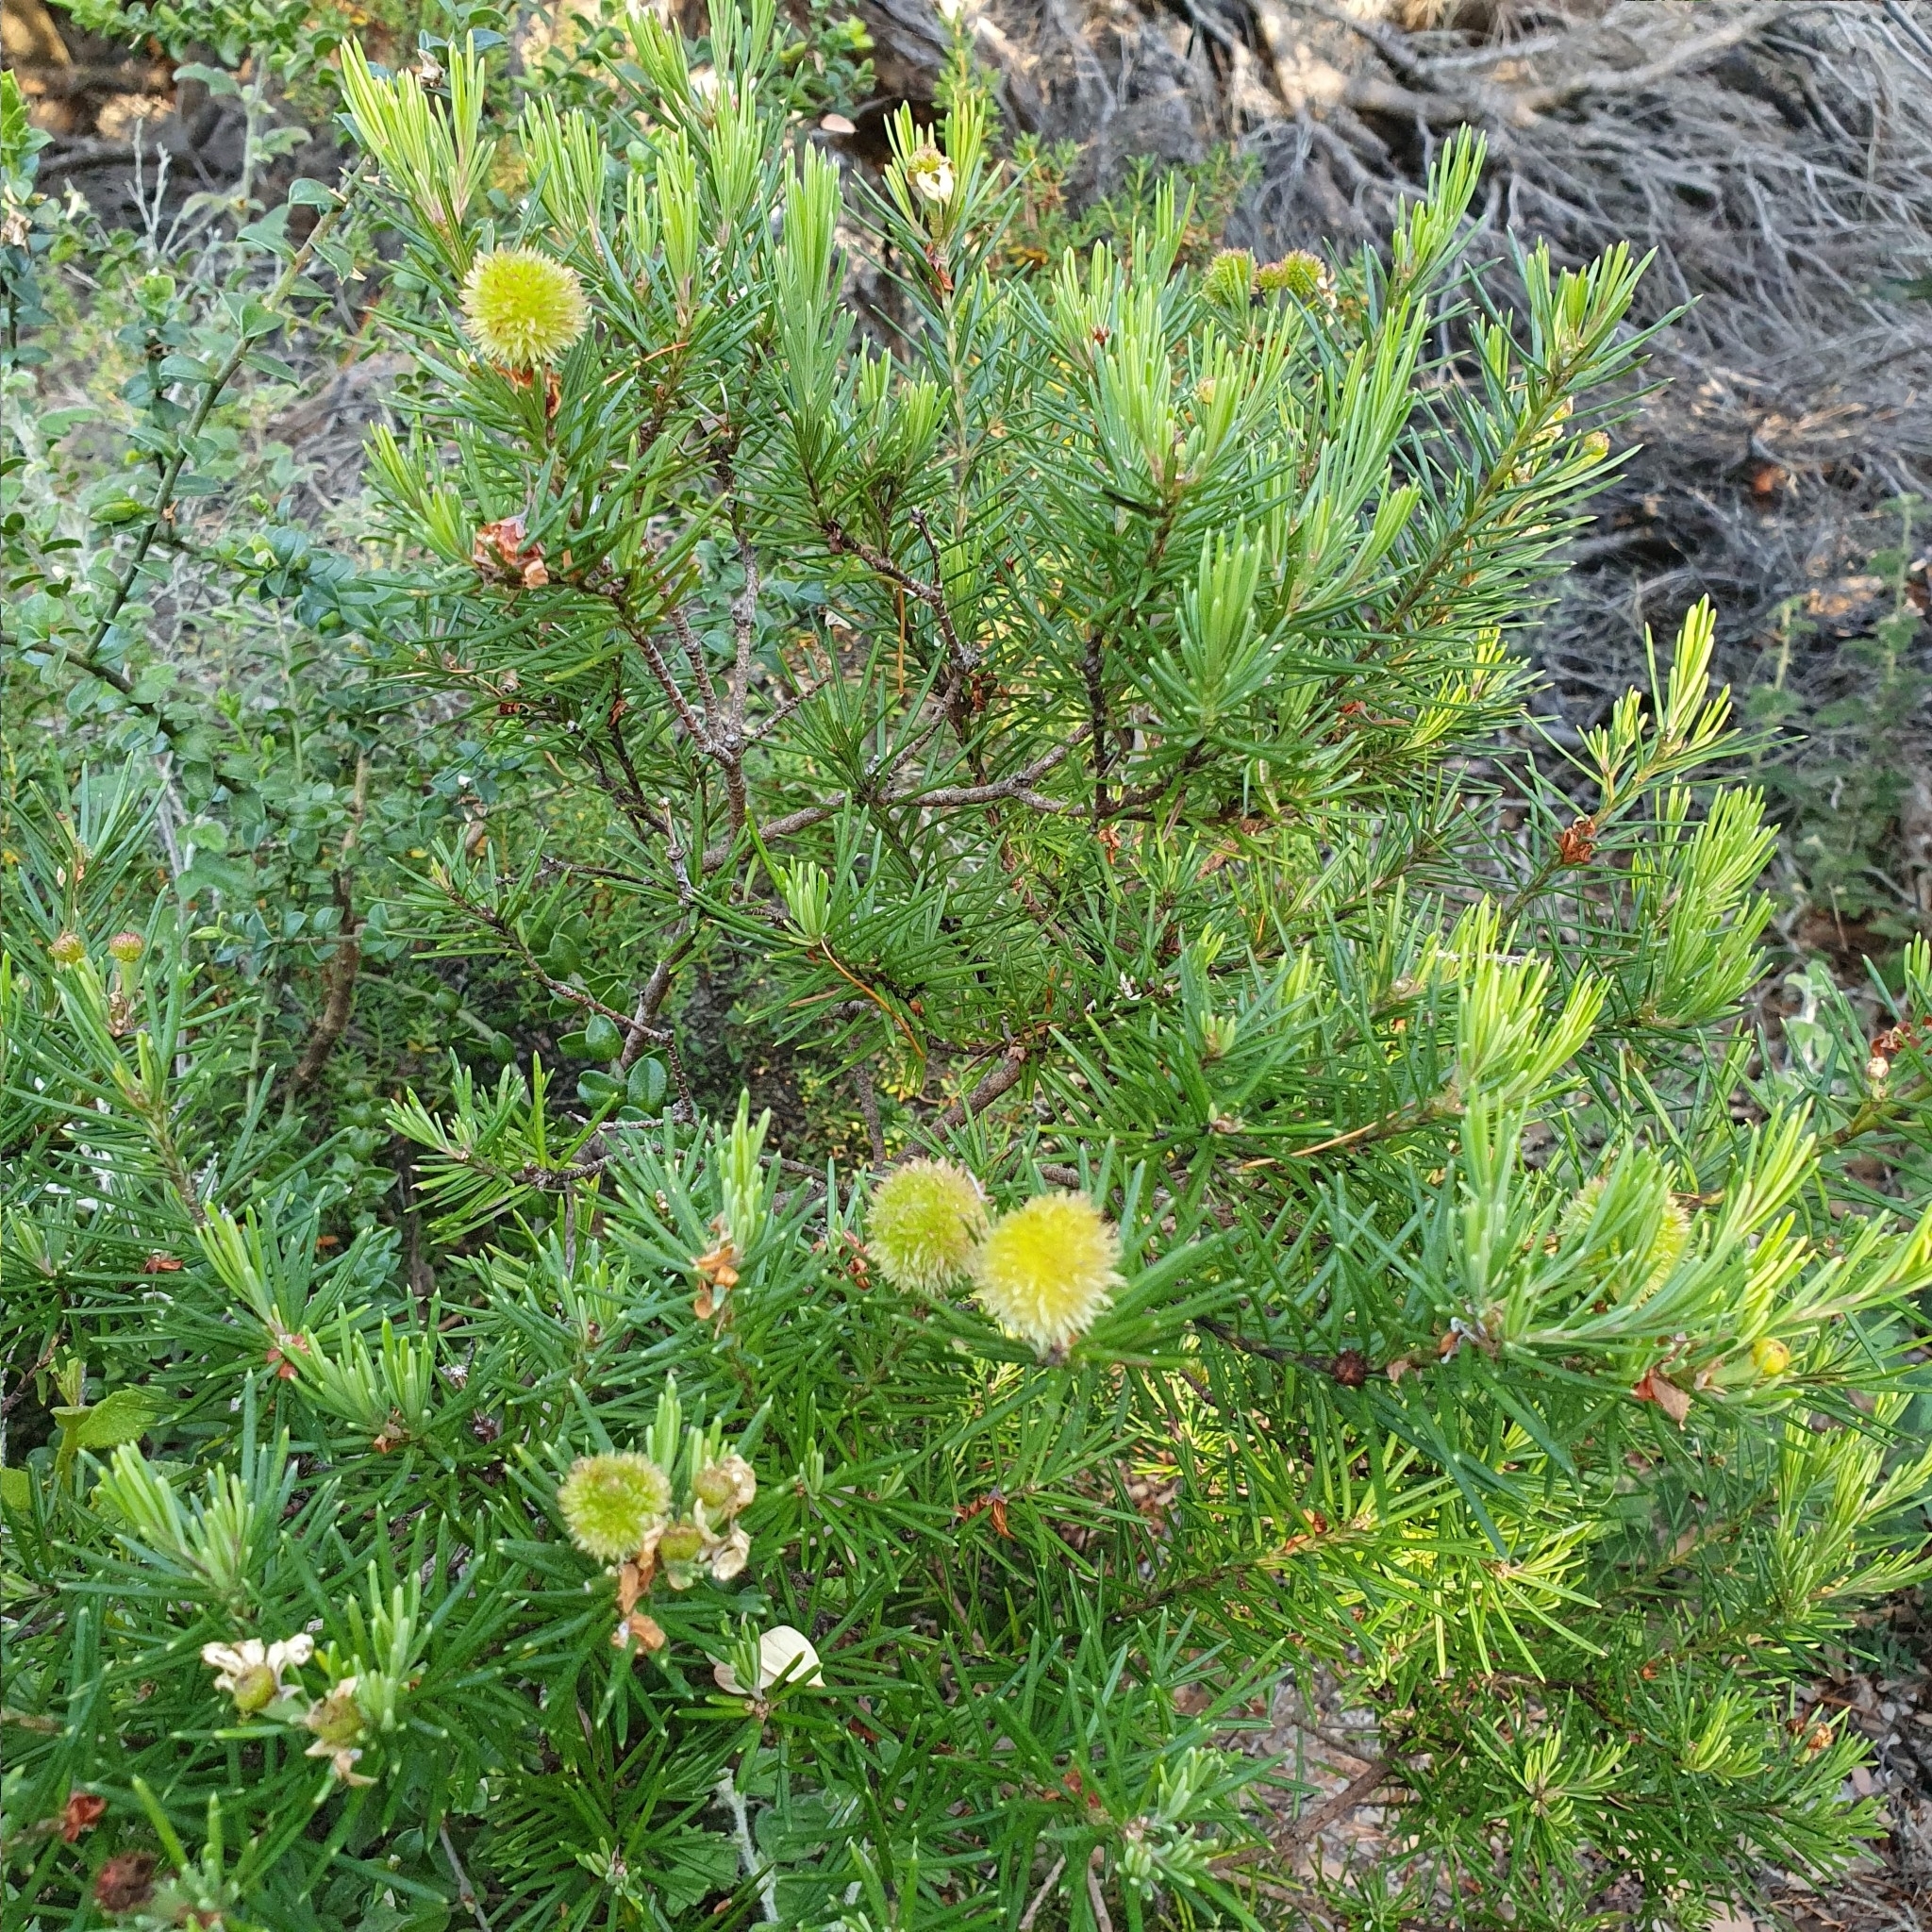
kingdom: Plantae
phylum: Tracheophyta
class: Magnoliopsida
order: Malpighiales
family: Euphorbiaceae
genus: Ricinocarpos
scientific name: Ricinocarpos pinifolius
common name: Weddingbush
